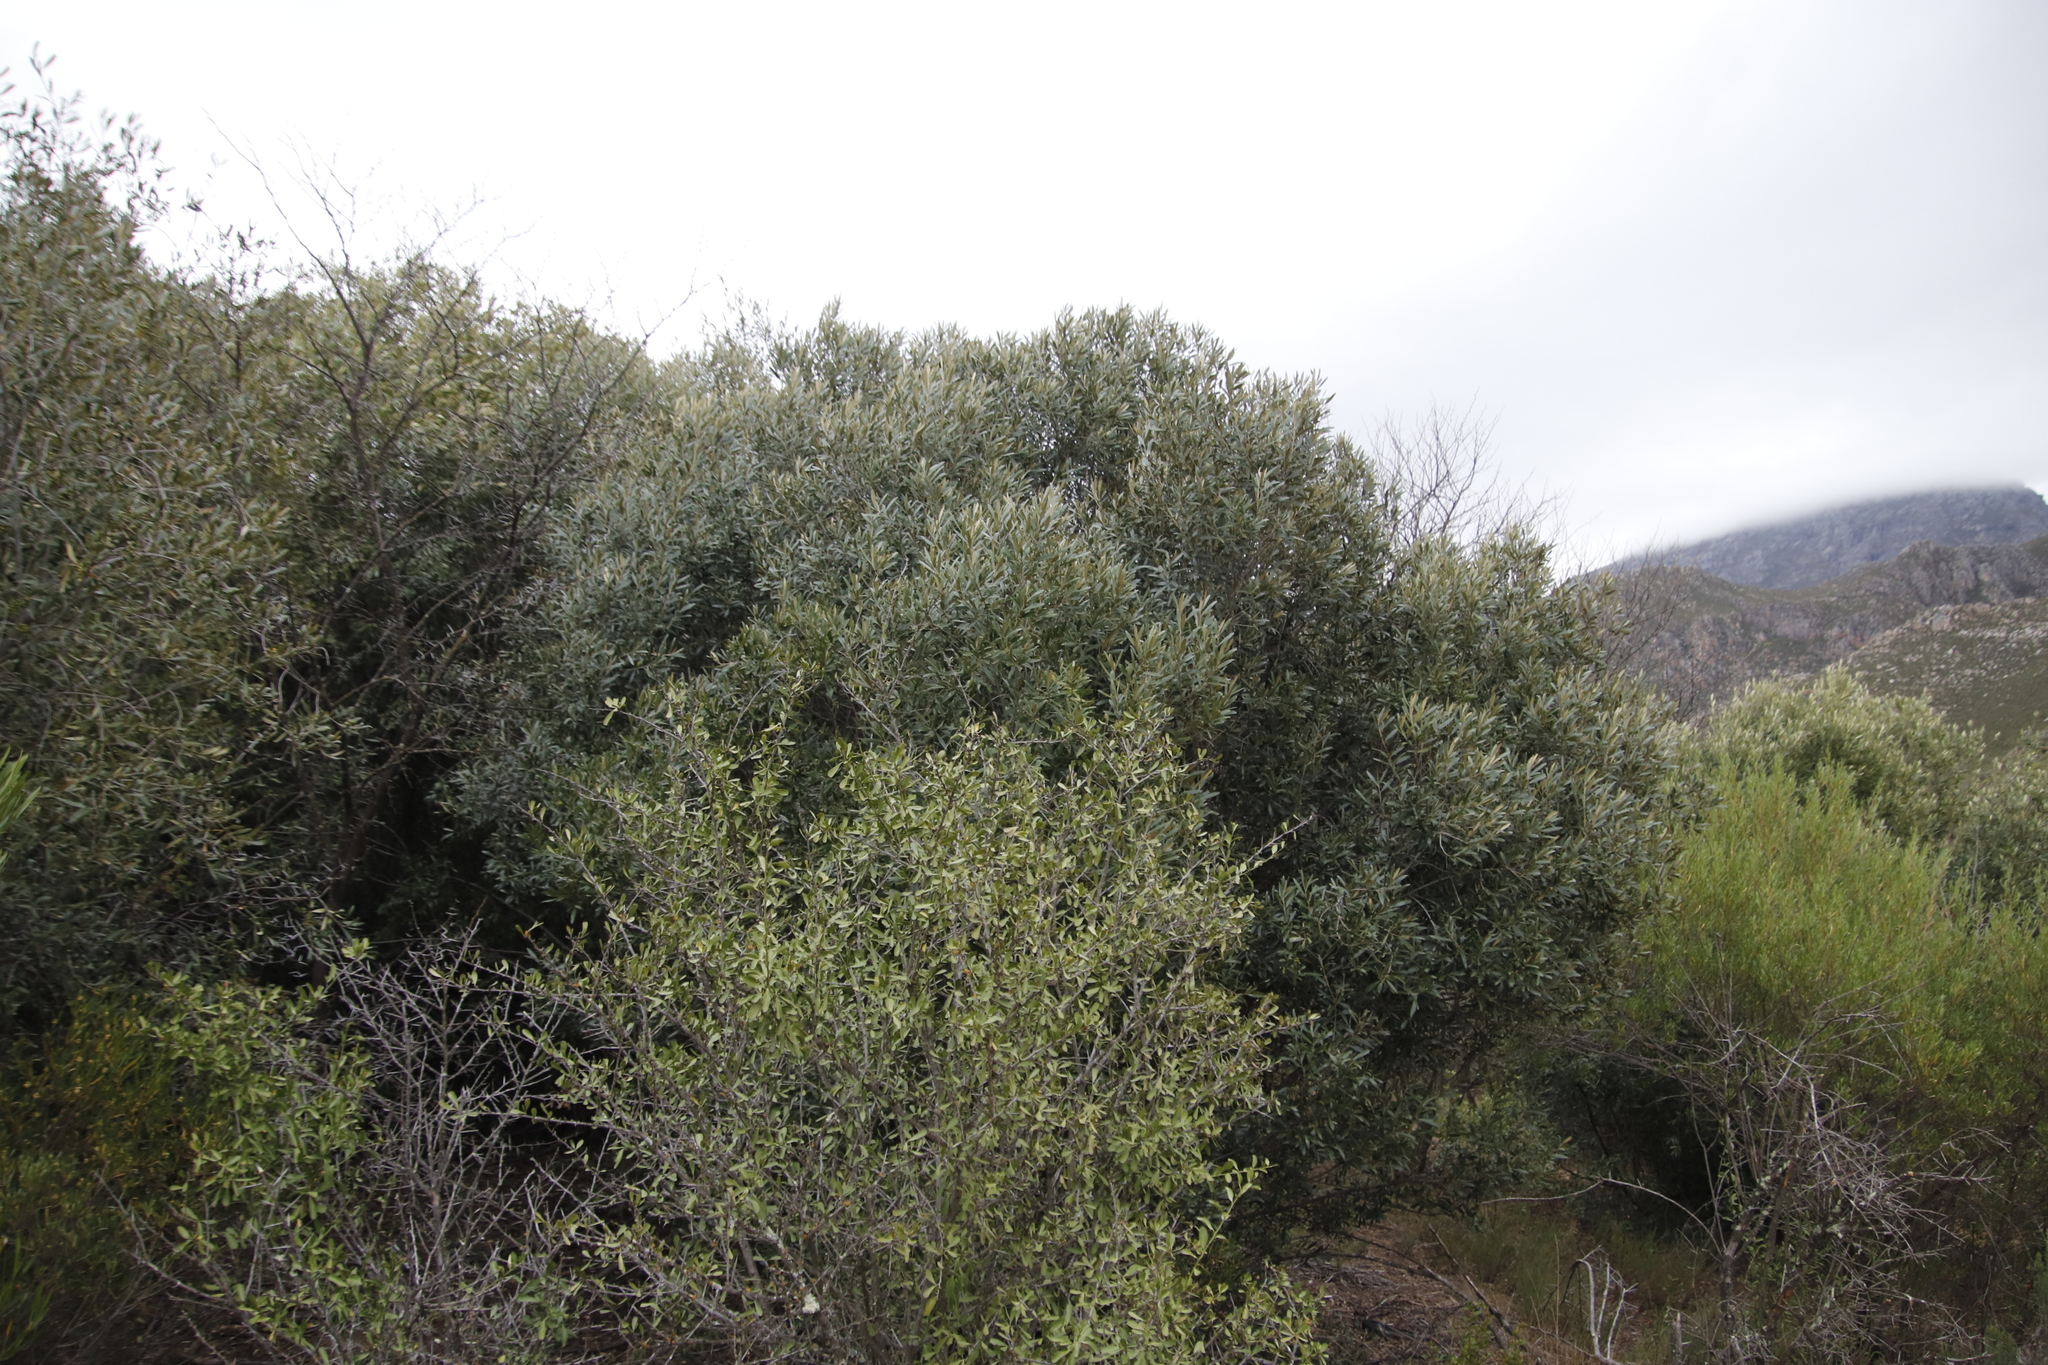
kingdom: Plantae
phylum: Tracheophyta
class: Magnoliopsida
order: Lamiales
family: Oleaceae
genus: Olea
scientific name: Olea europaea
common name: Olive
